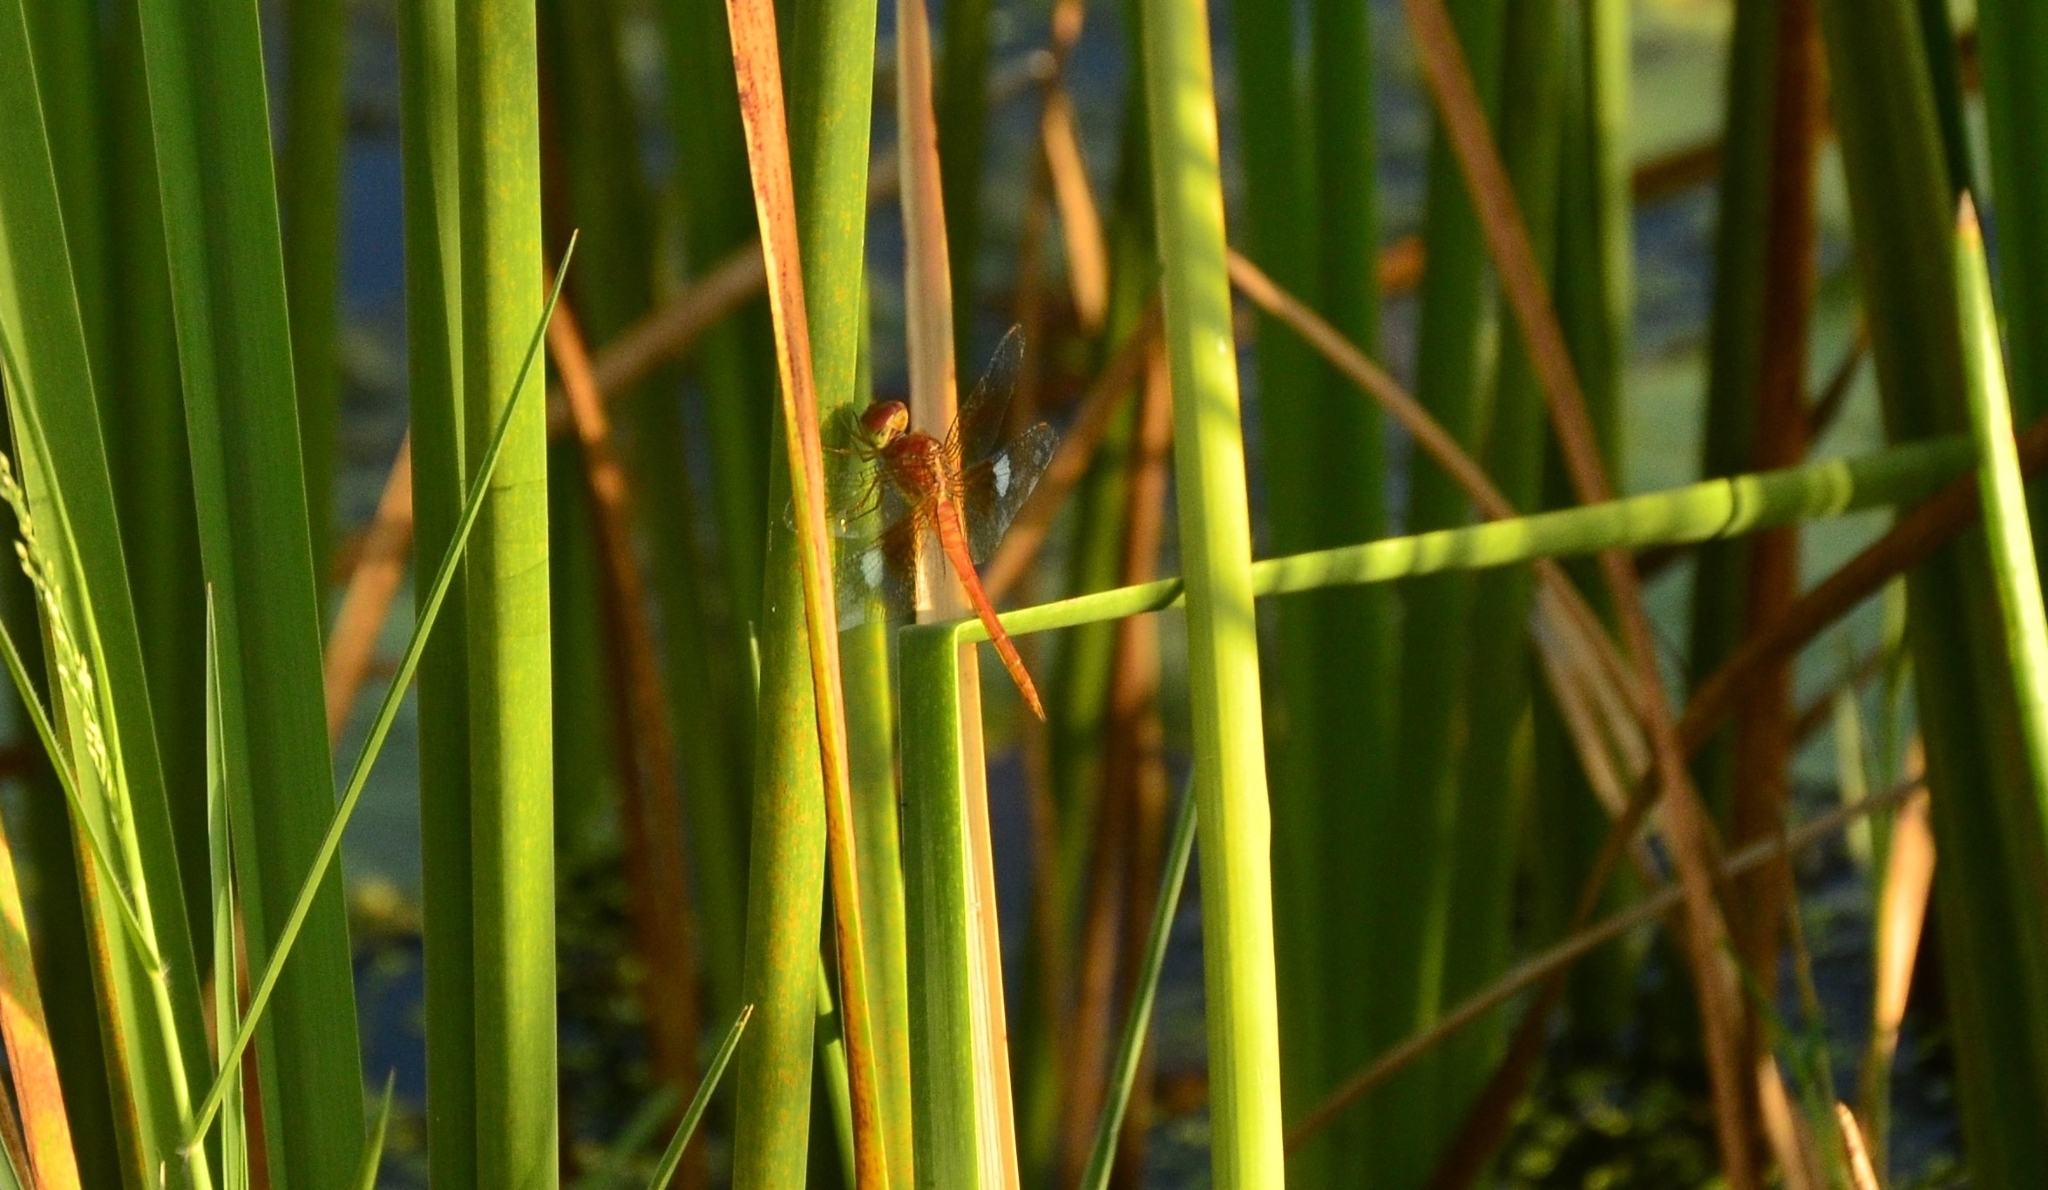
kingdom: Animalia
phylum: Arthropoda
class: Insecta
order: Odonata
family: Libellulidae
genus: Tholymis
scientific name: Tholymis tillarga
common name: Coral-tailed cloud wing
